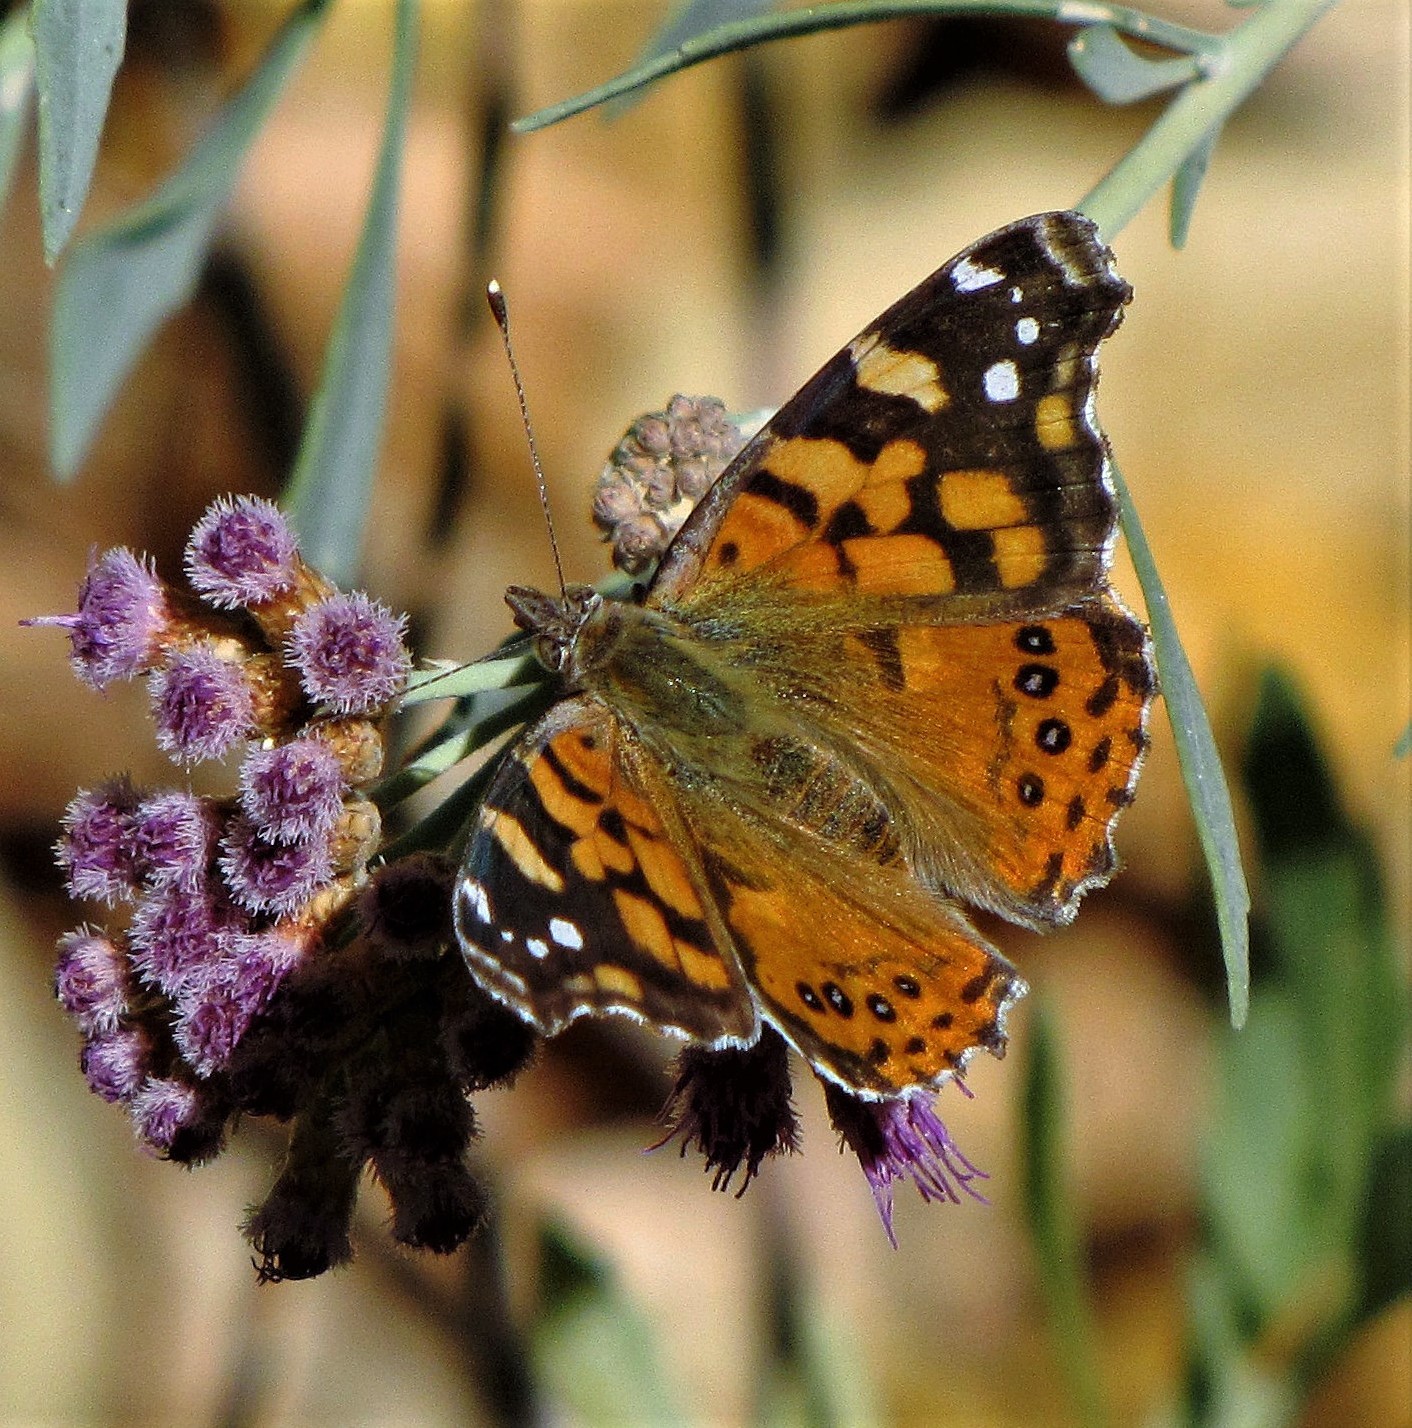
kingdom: Animalia
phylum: Arthropoda
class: Insecta
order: Lepidoptera
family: Nymphalidae
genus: Vanessa
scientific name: Vanessa carye
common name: Subtropical lady
